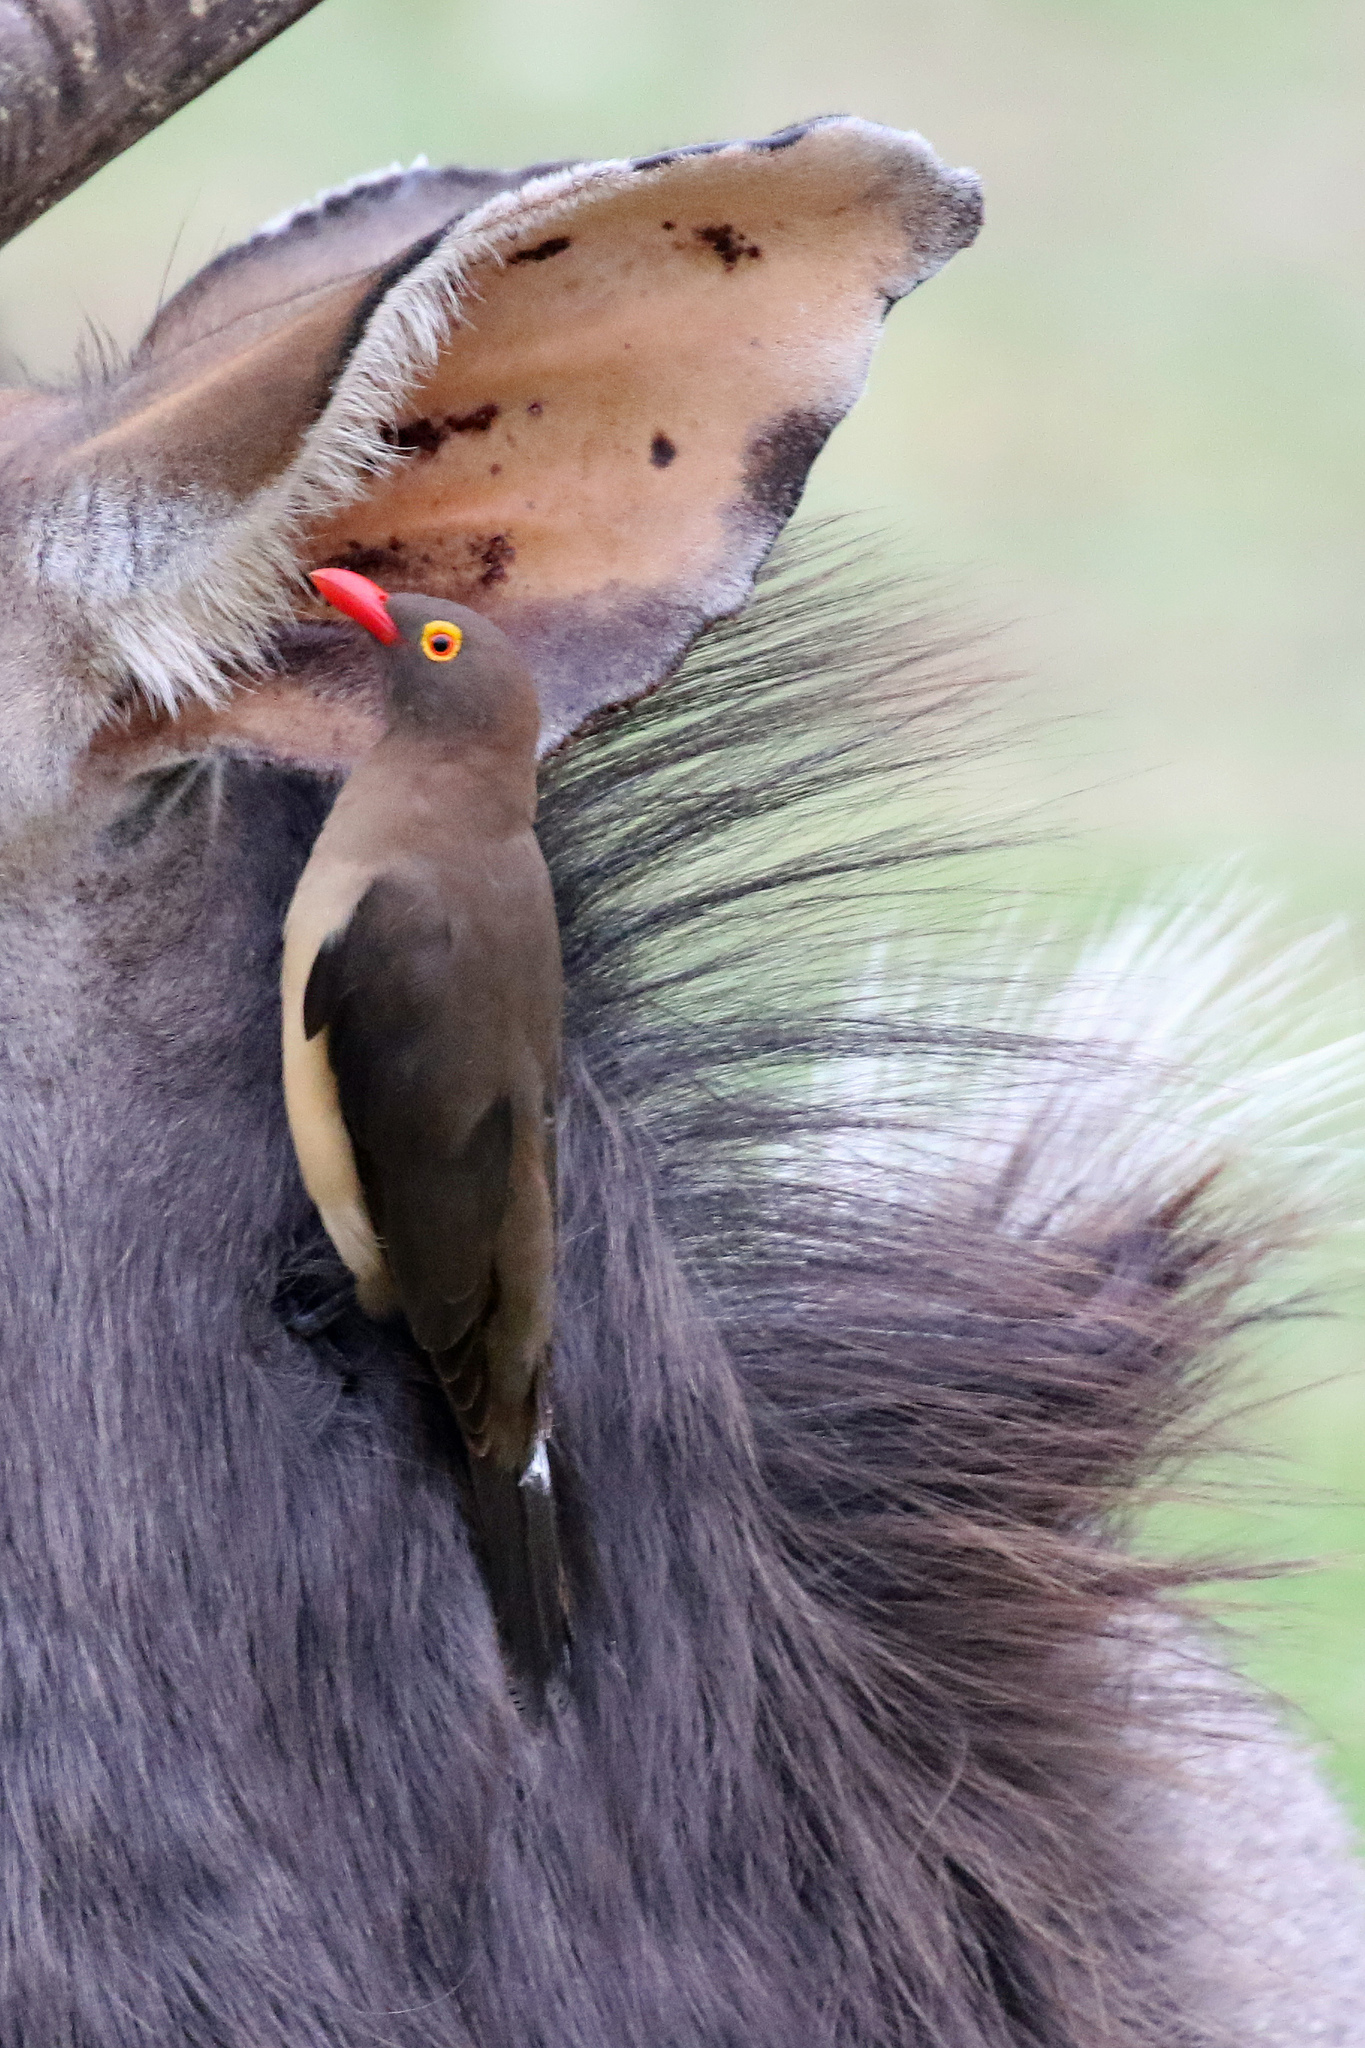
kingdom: Animalia
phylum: Chordata
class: Aves
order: Passeriformes
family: Buphagidae
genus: Buphagus
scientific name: Buphagus erythrorhynchus
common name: Red-billed oxpecker
